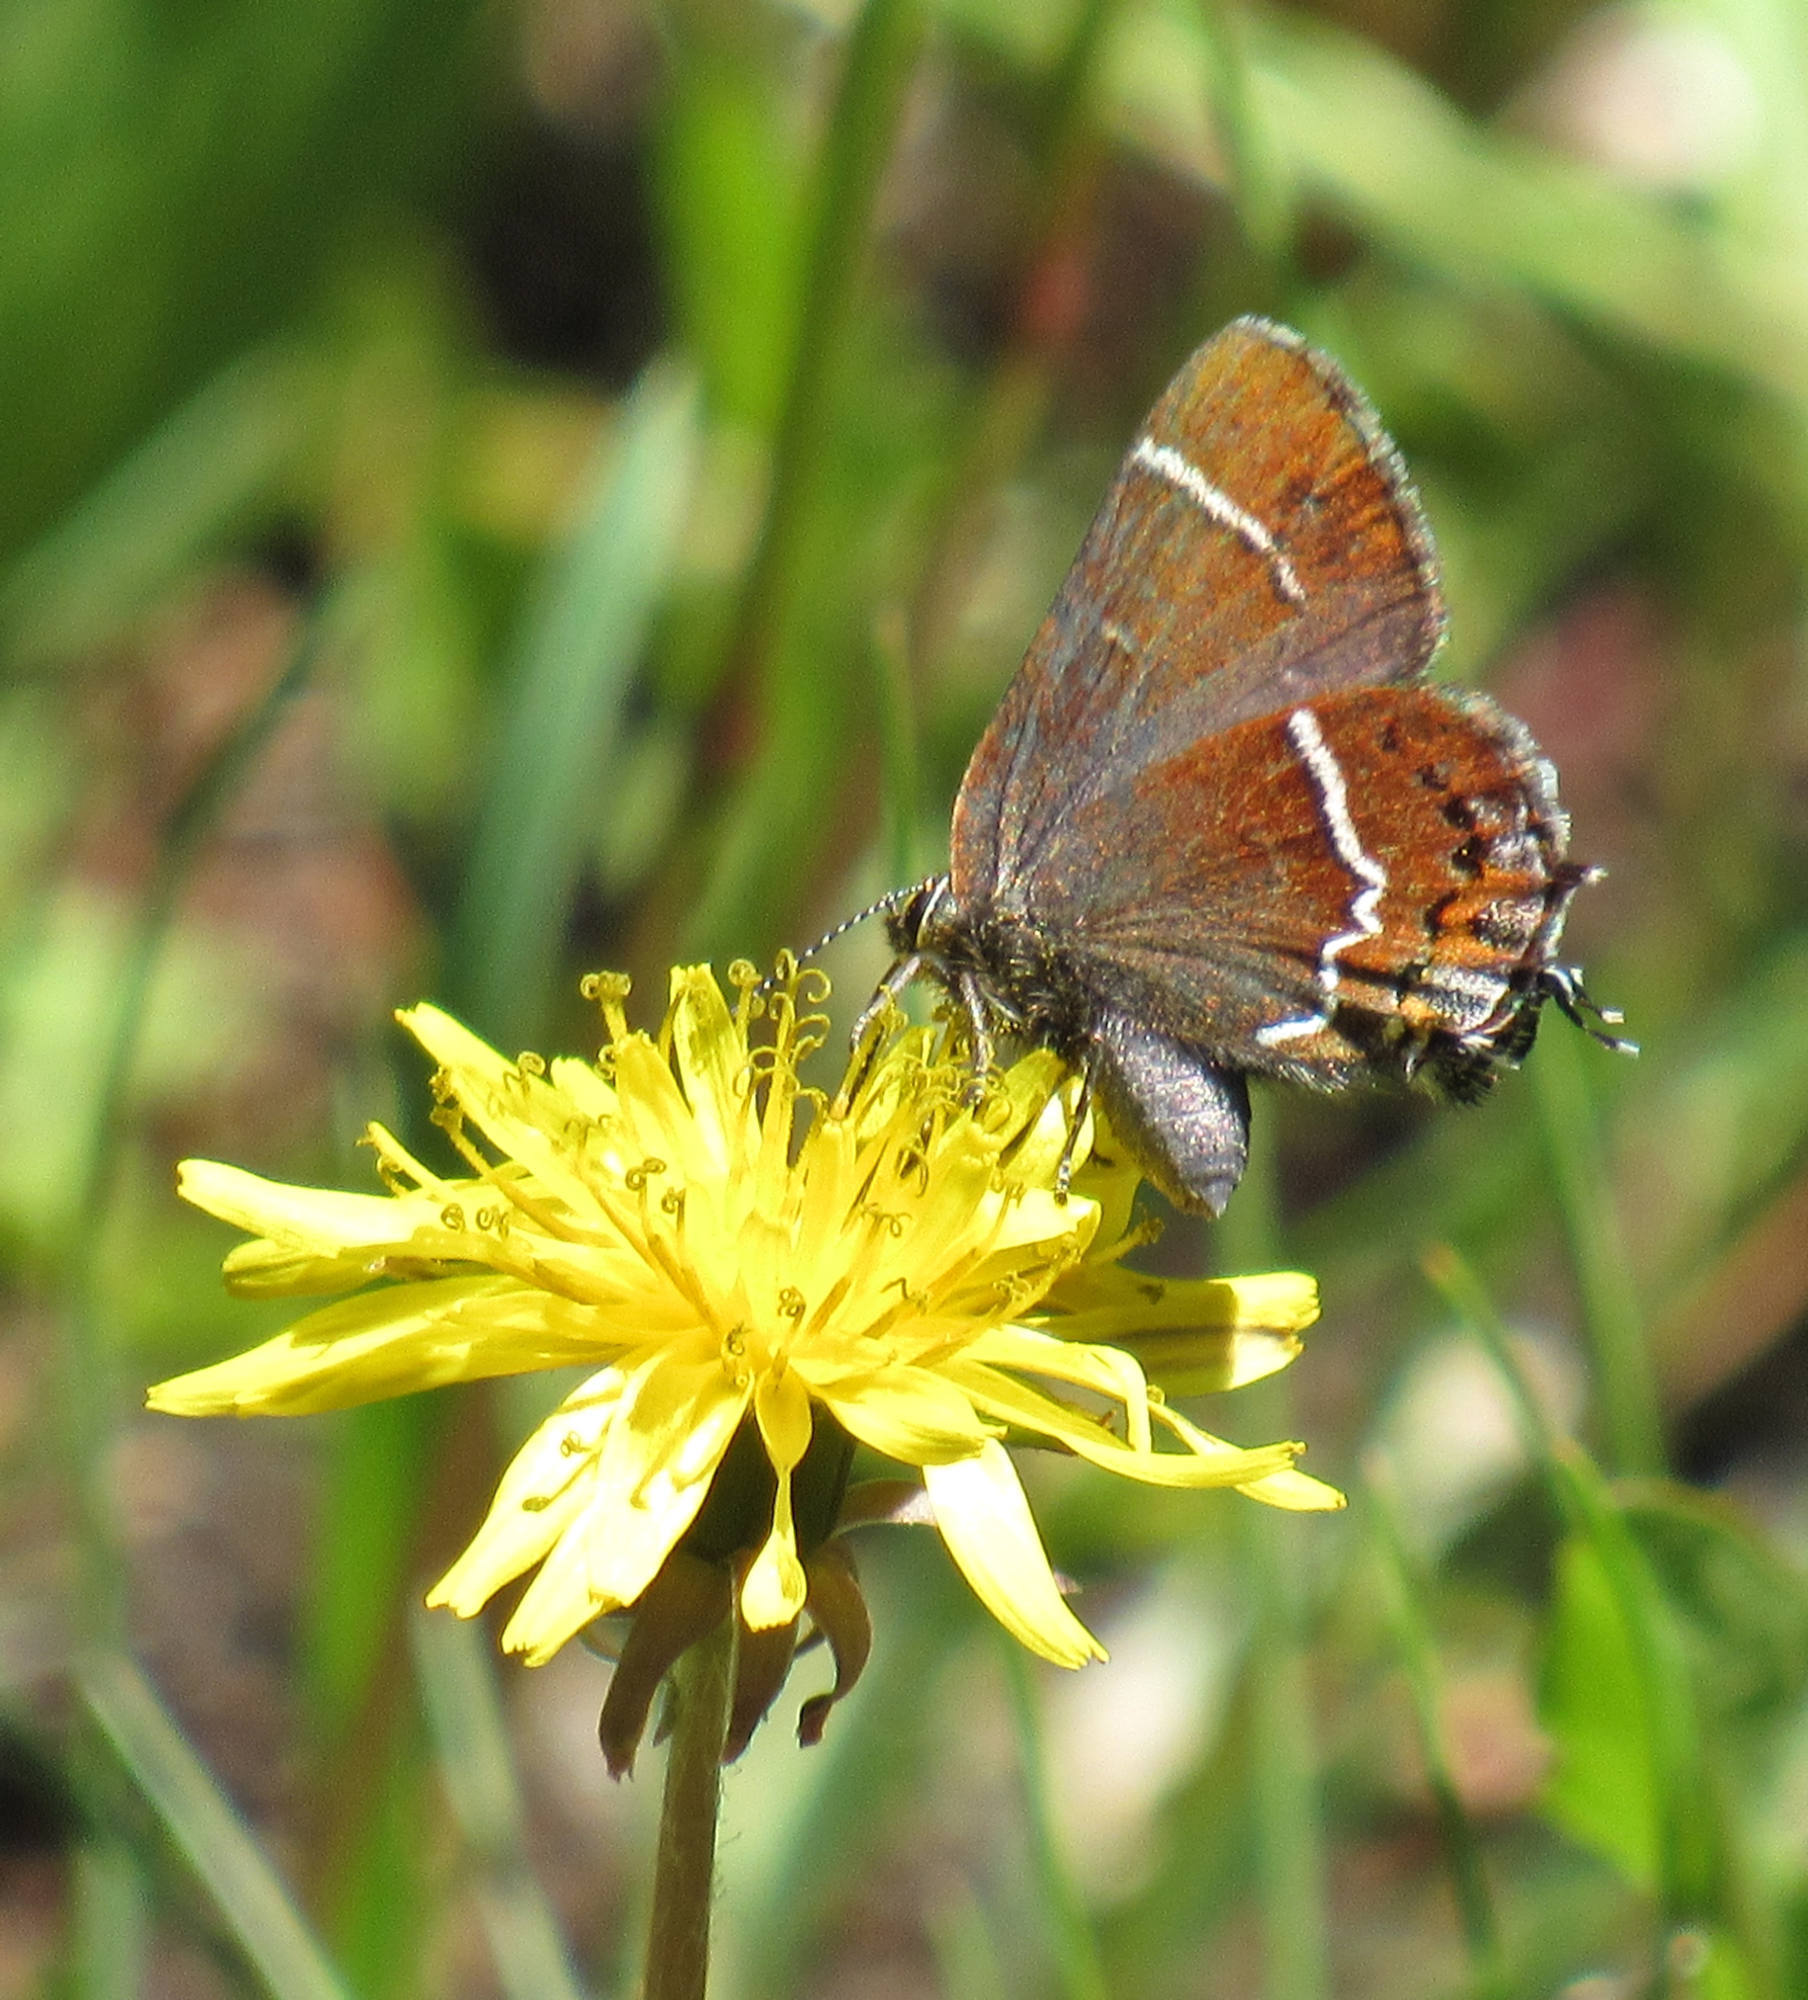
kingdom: Animalia
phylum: Arthropoda
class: Insecta
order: Lepidoptera
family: Lycaenidae
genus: Mitoura
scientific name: Mitoura spinetorum
